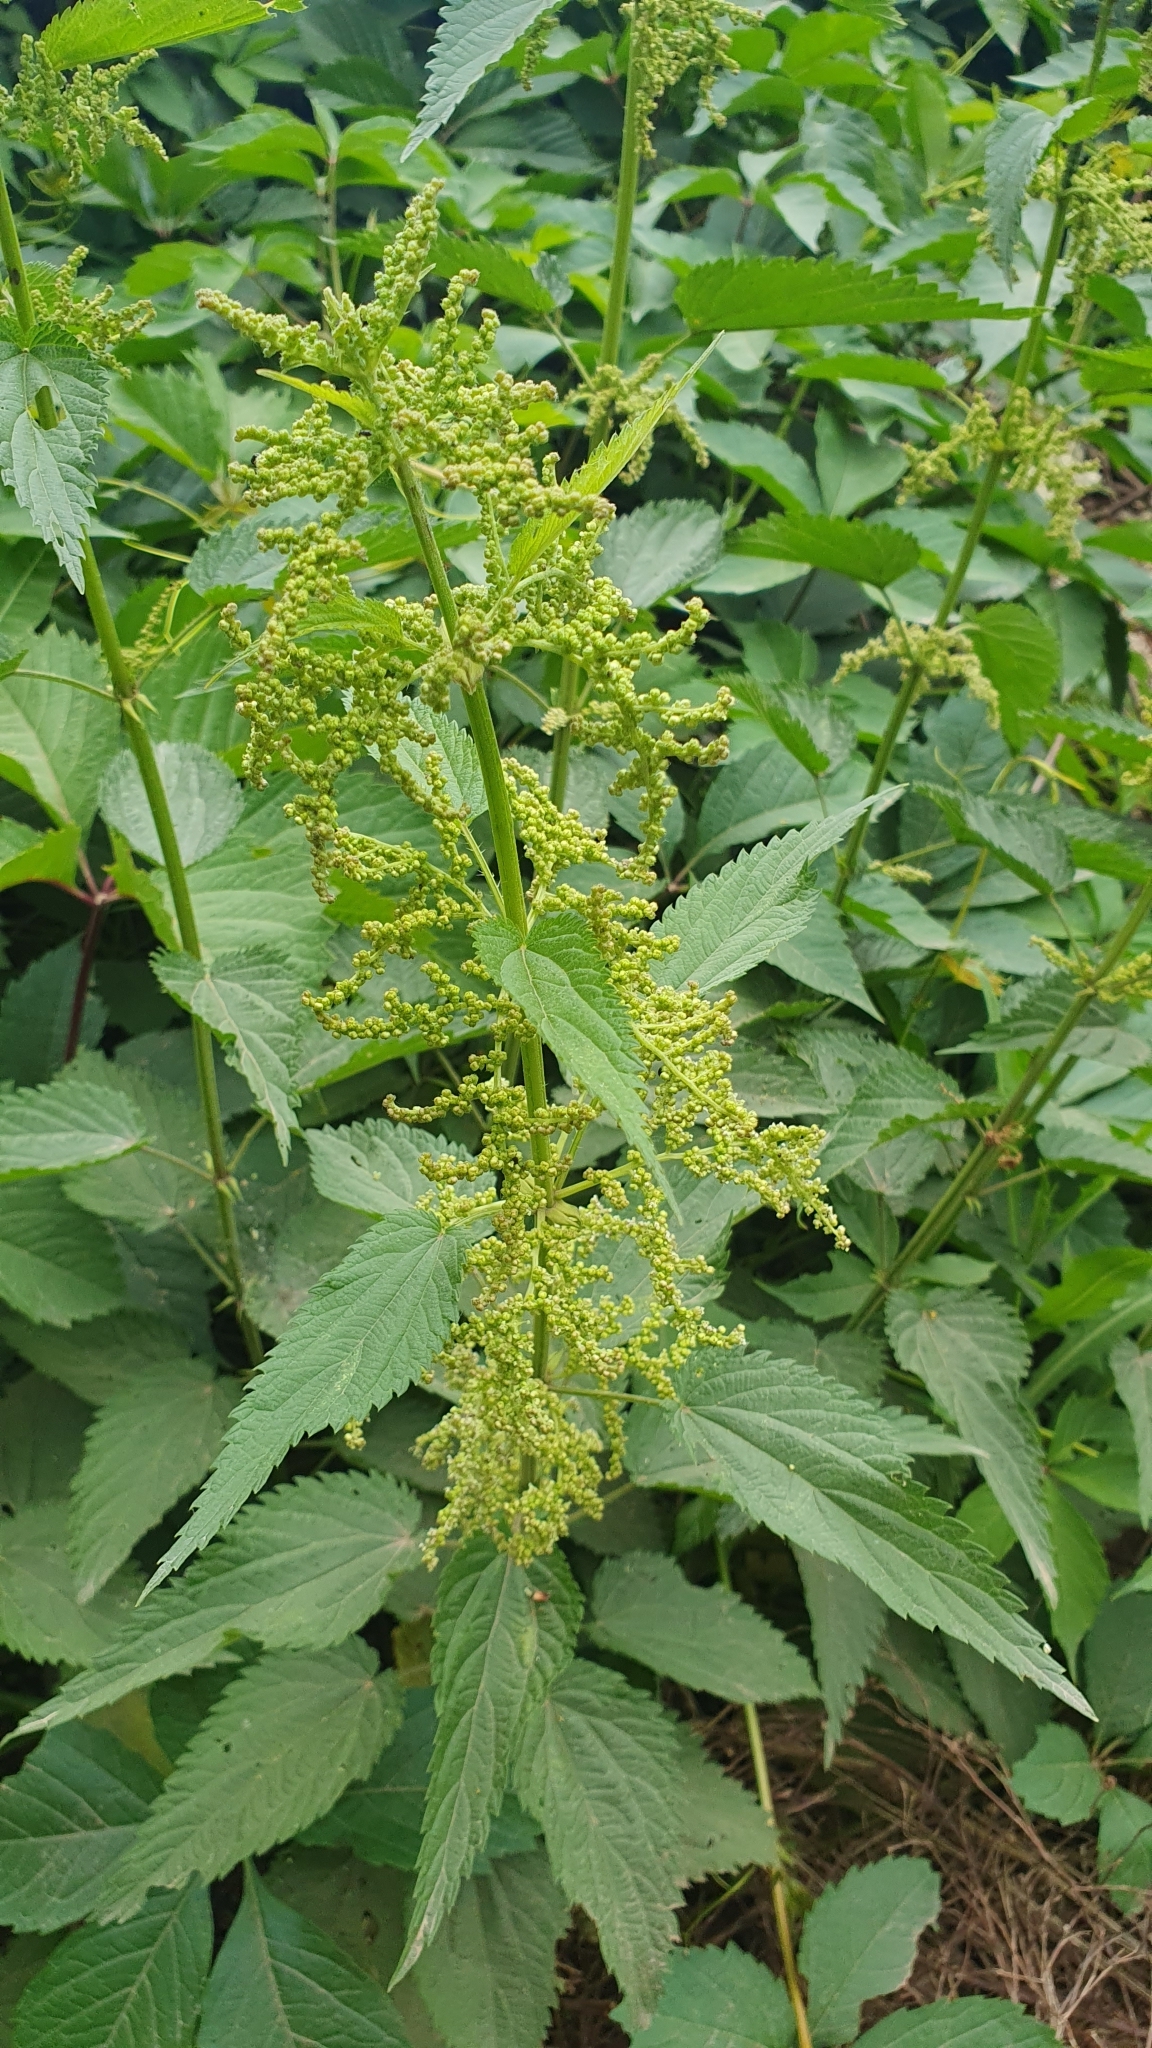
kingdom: Plantae
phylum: Tracheophyta
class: Magnoliopsida
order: Rosales
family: Urticaceae
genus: Urtica
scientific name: Urtica dioica
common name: Common nettle
